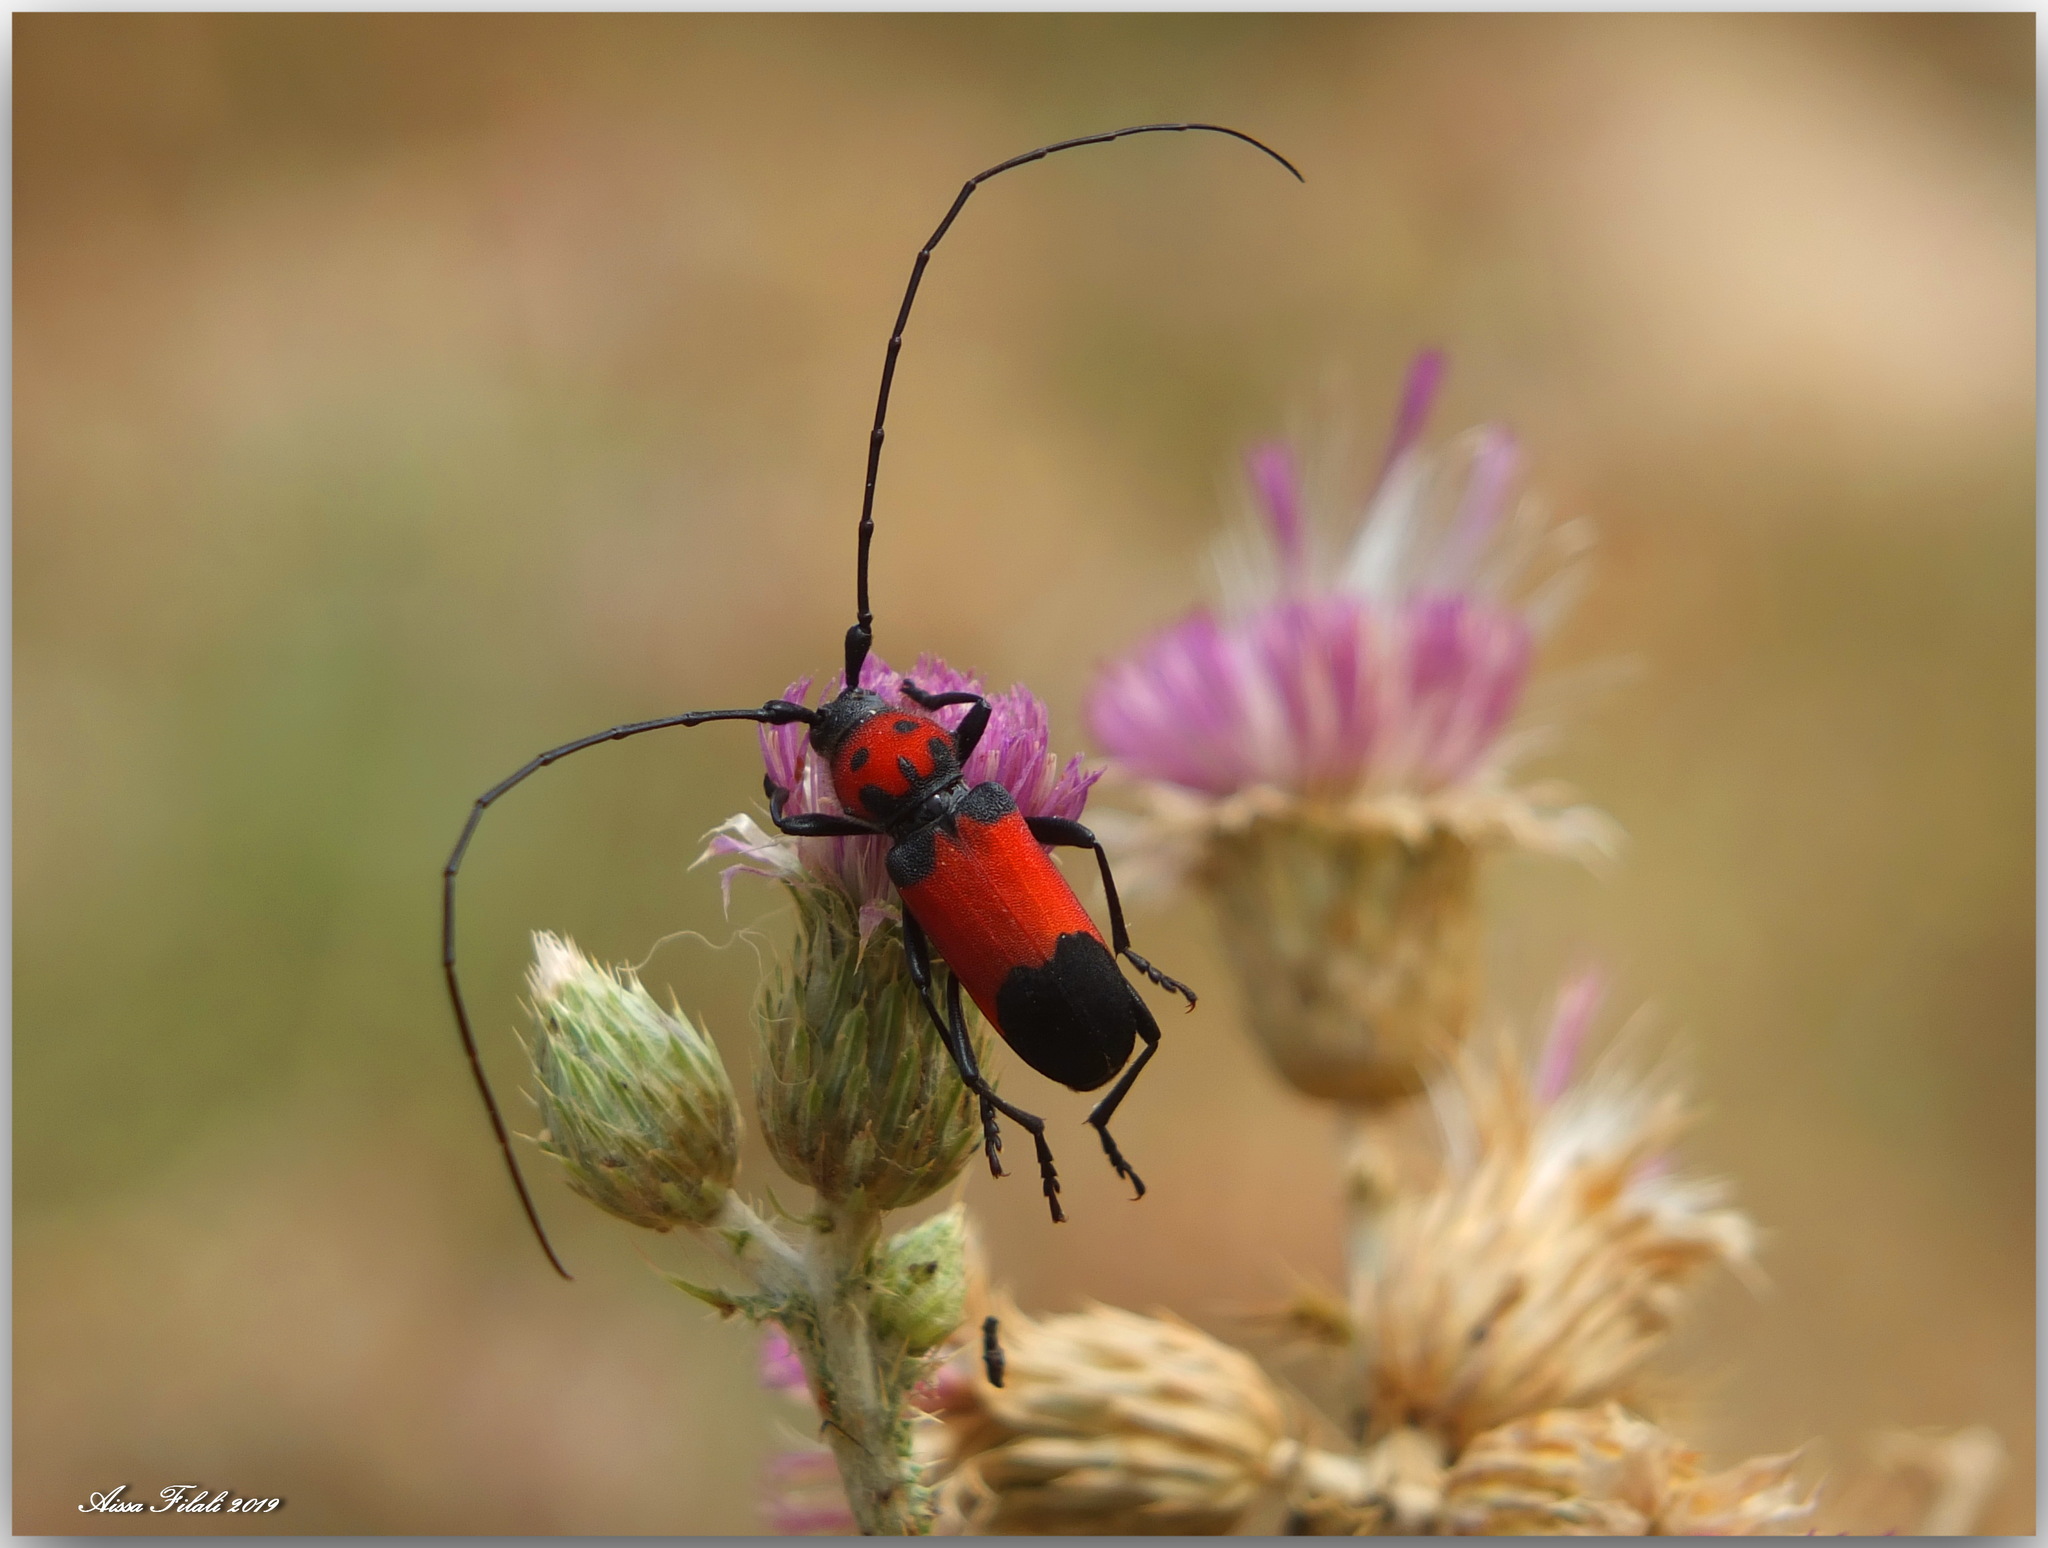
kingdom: Animalia
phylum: Arthropoda
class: Insecta
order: Coleoptera
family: Cerambycidae
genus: Purpuricenus
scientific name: Purpuricenus desfontainii
